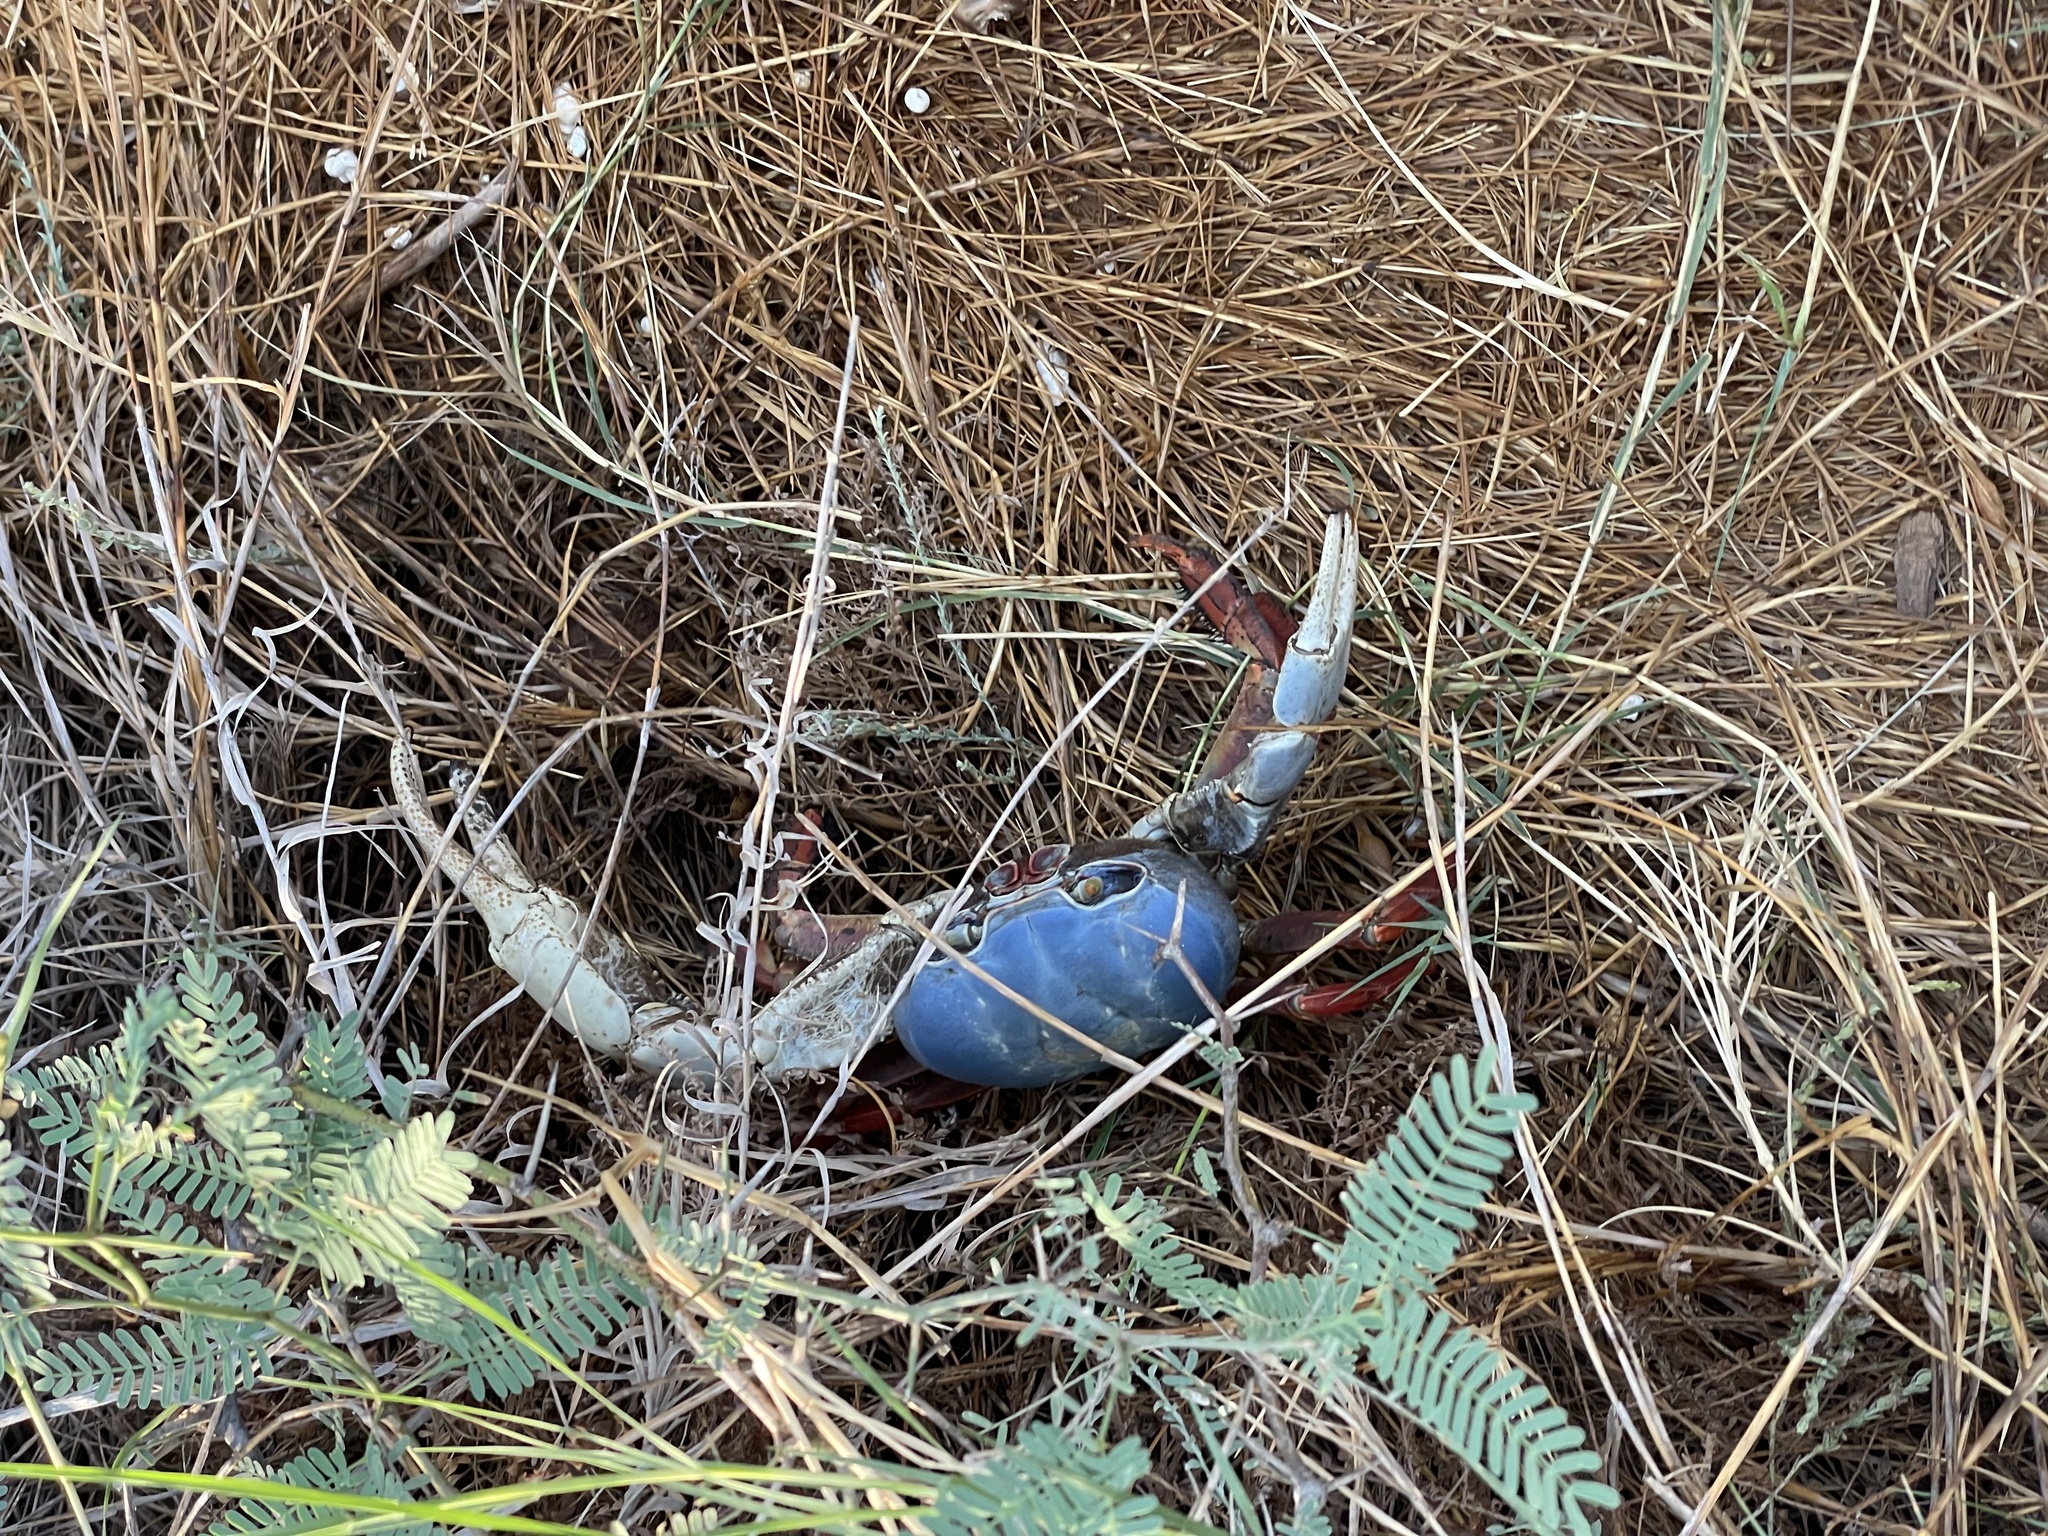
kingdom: Animalia
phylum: Arthropoda
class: Malacostraca
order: Decapoda
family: Gecarcinidae
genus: Cardisoma
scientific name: Cardisoma crassum
